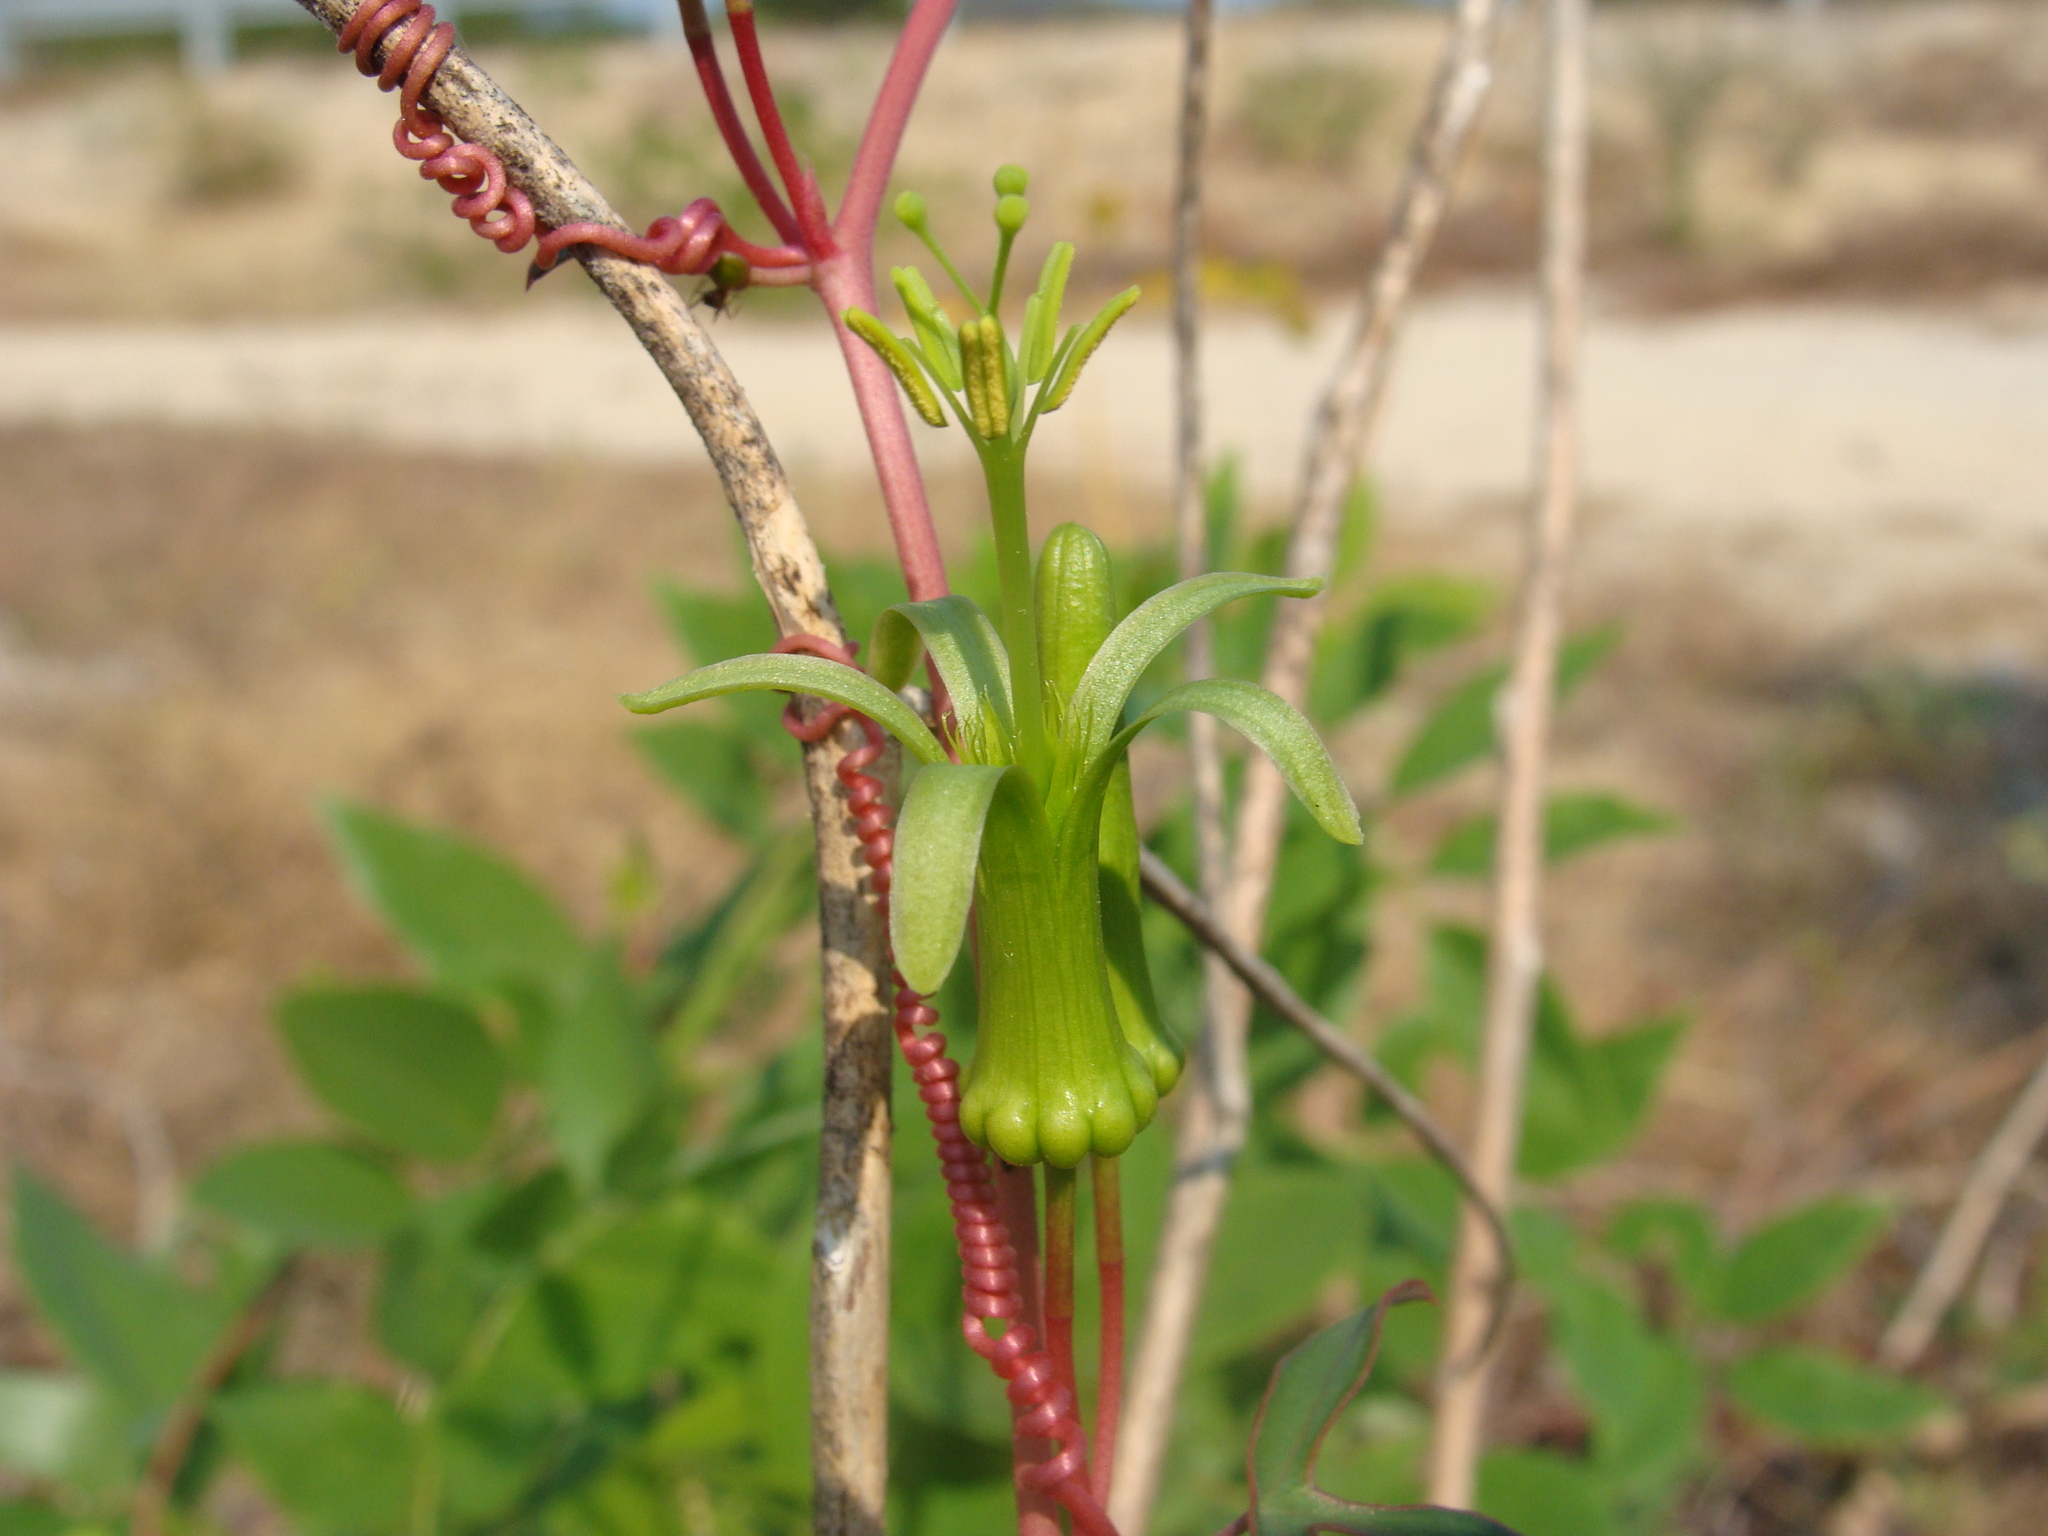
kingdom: Plantae
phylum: Tracheophyta
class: Magnoliopsida
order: Malpighiales
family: Passifloraceae
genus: Passiflora
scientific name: Passiflora viridiflora
